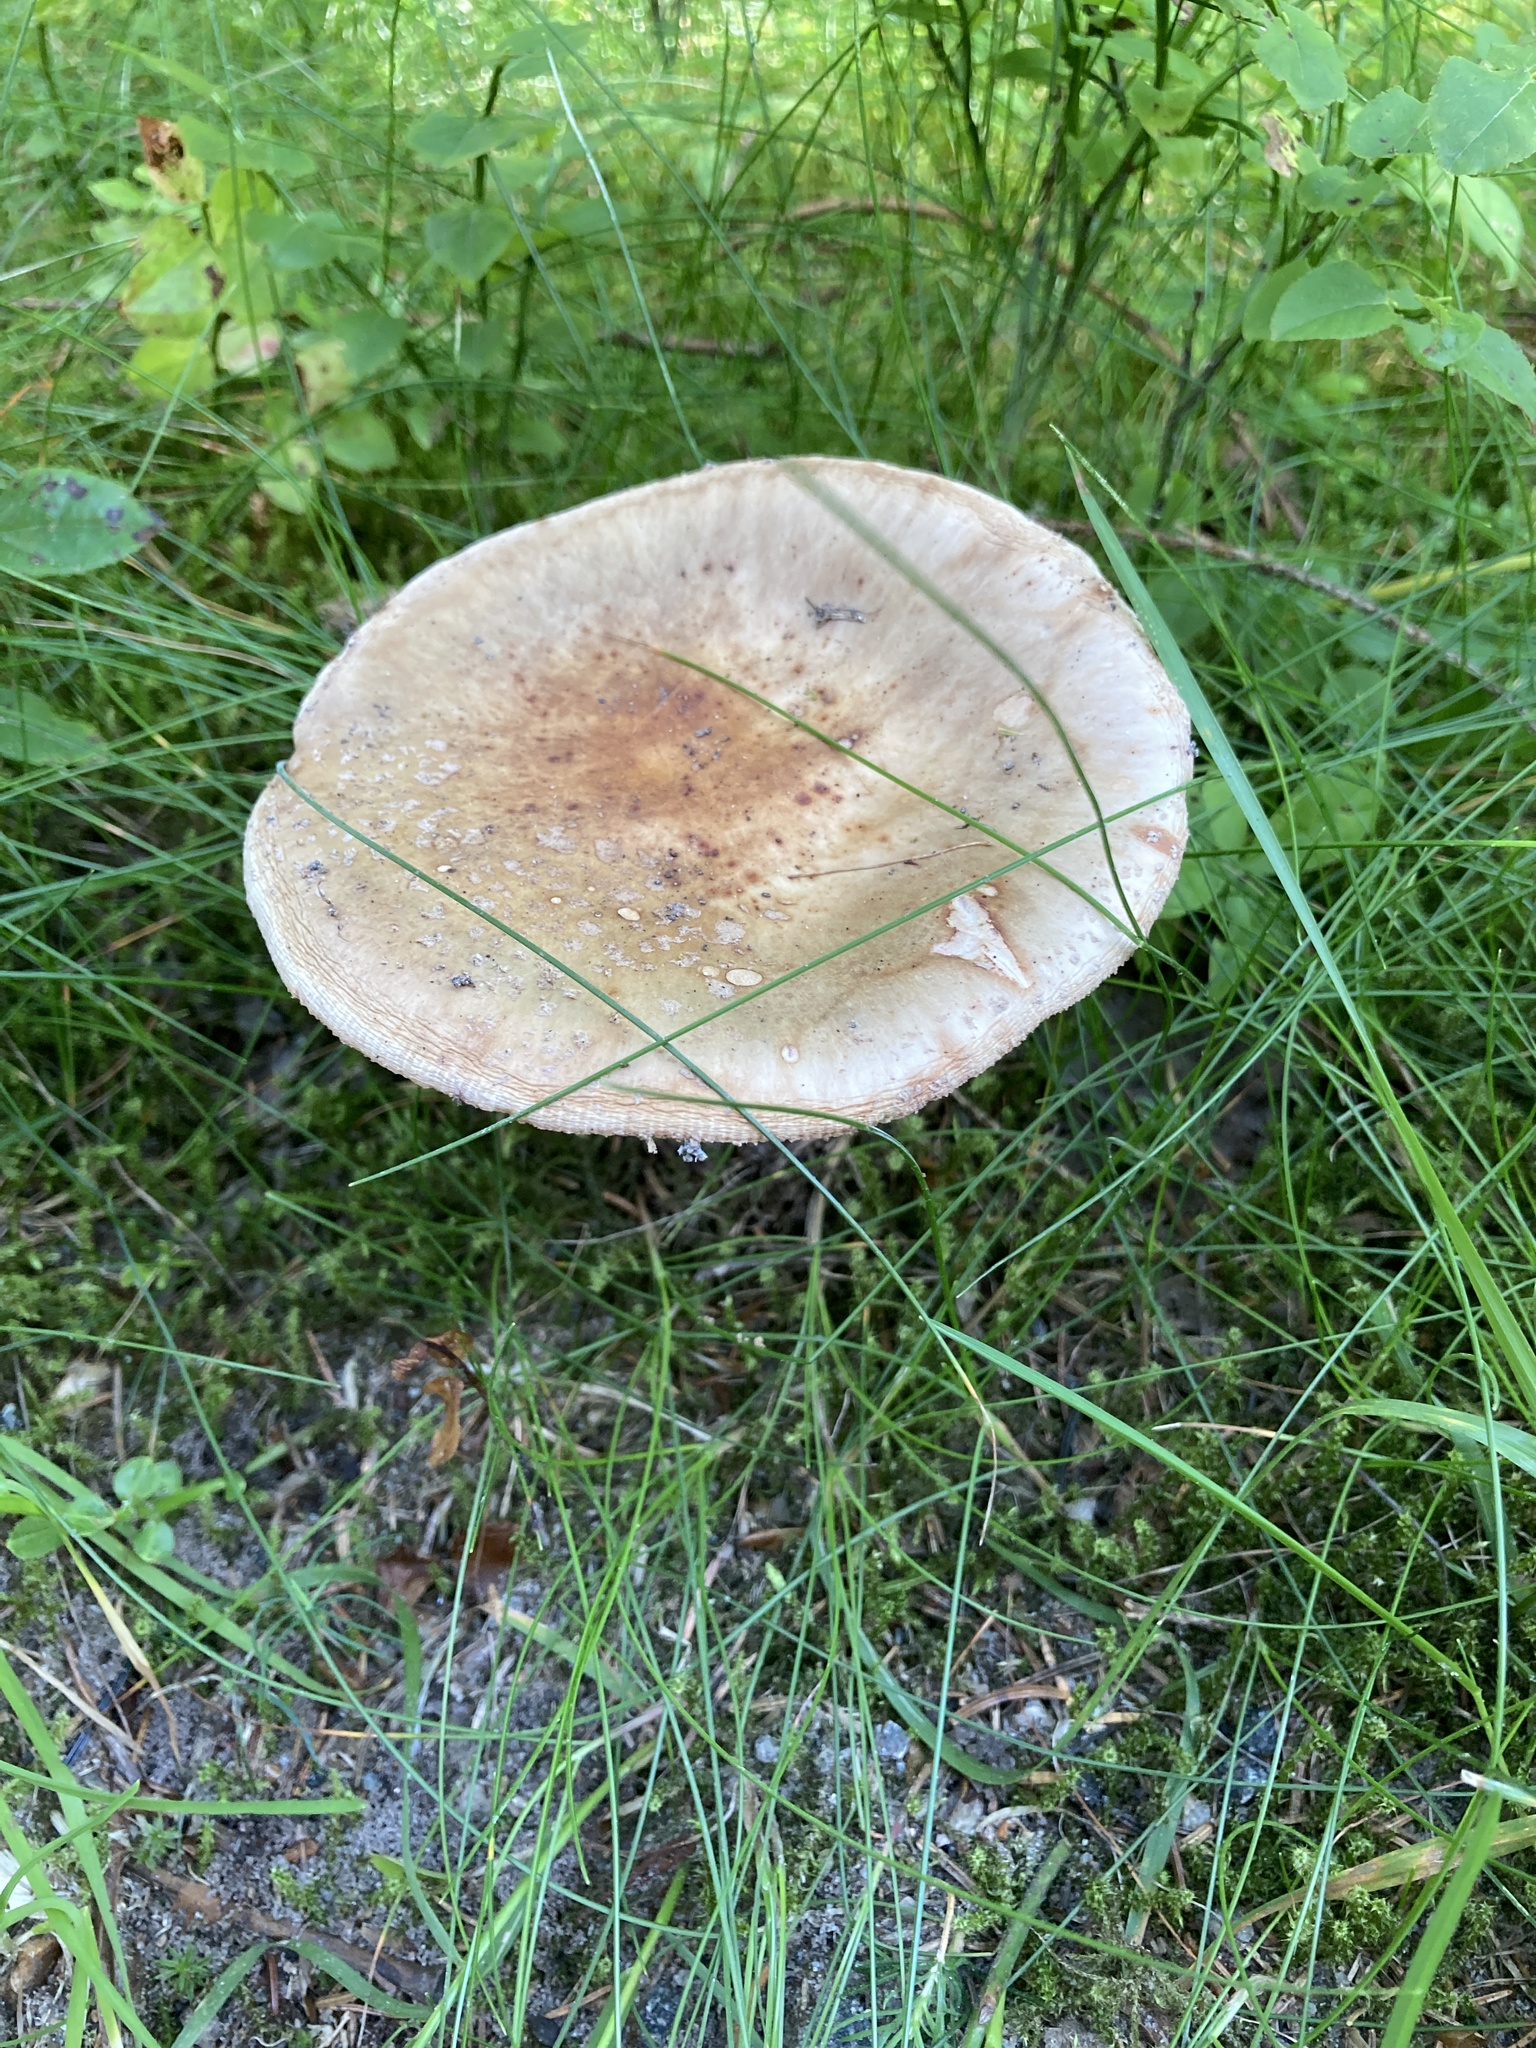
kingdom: Fungi
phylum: Basidiomycota
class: Agaricomycetes
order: Agaricales
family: Amanitaceae
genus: Amanita
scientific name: Amanita rubescens
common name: Blusher
